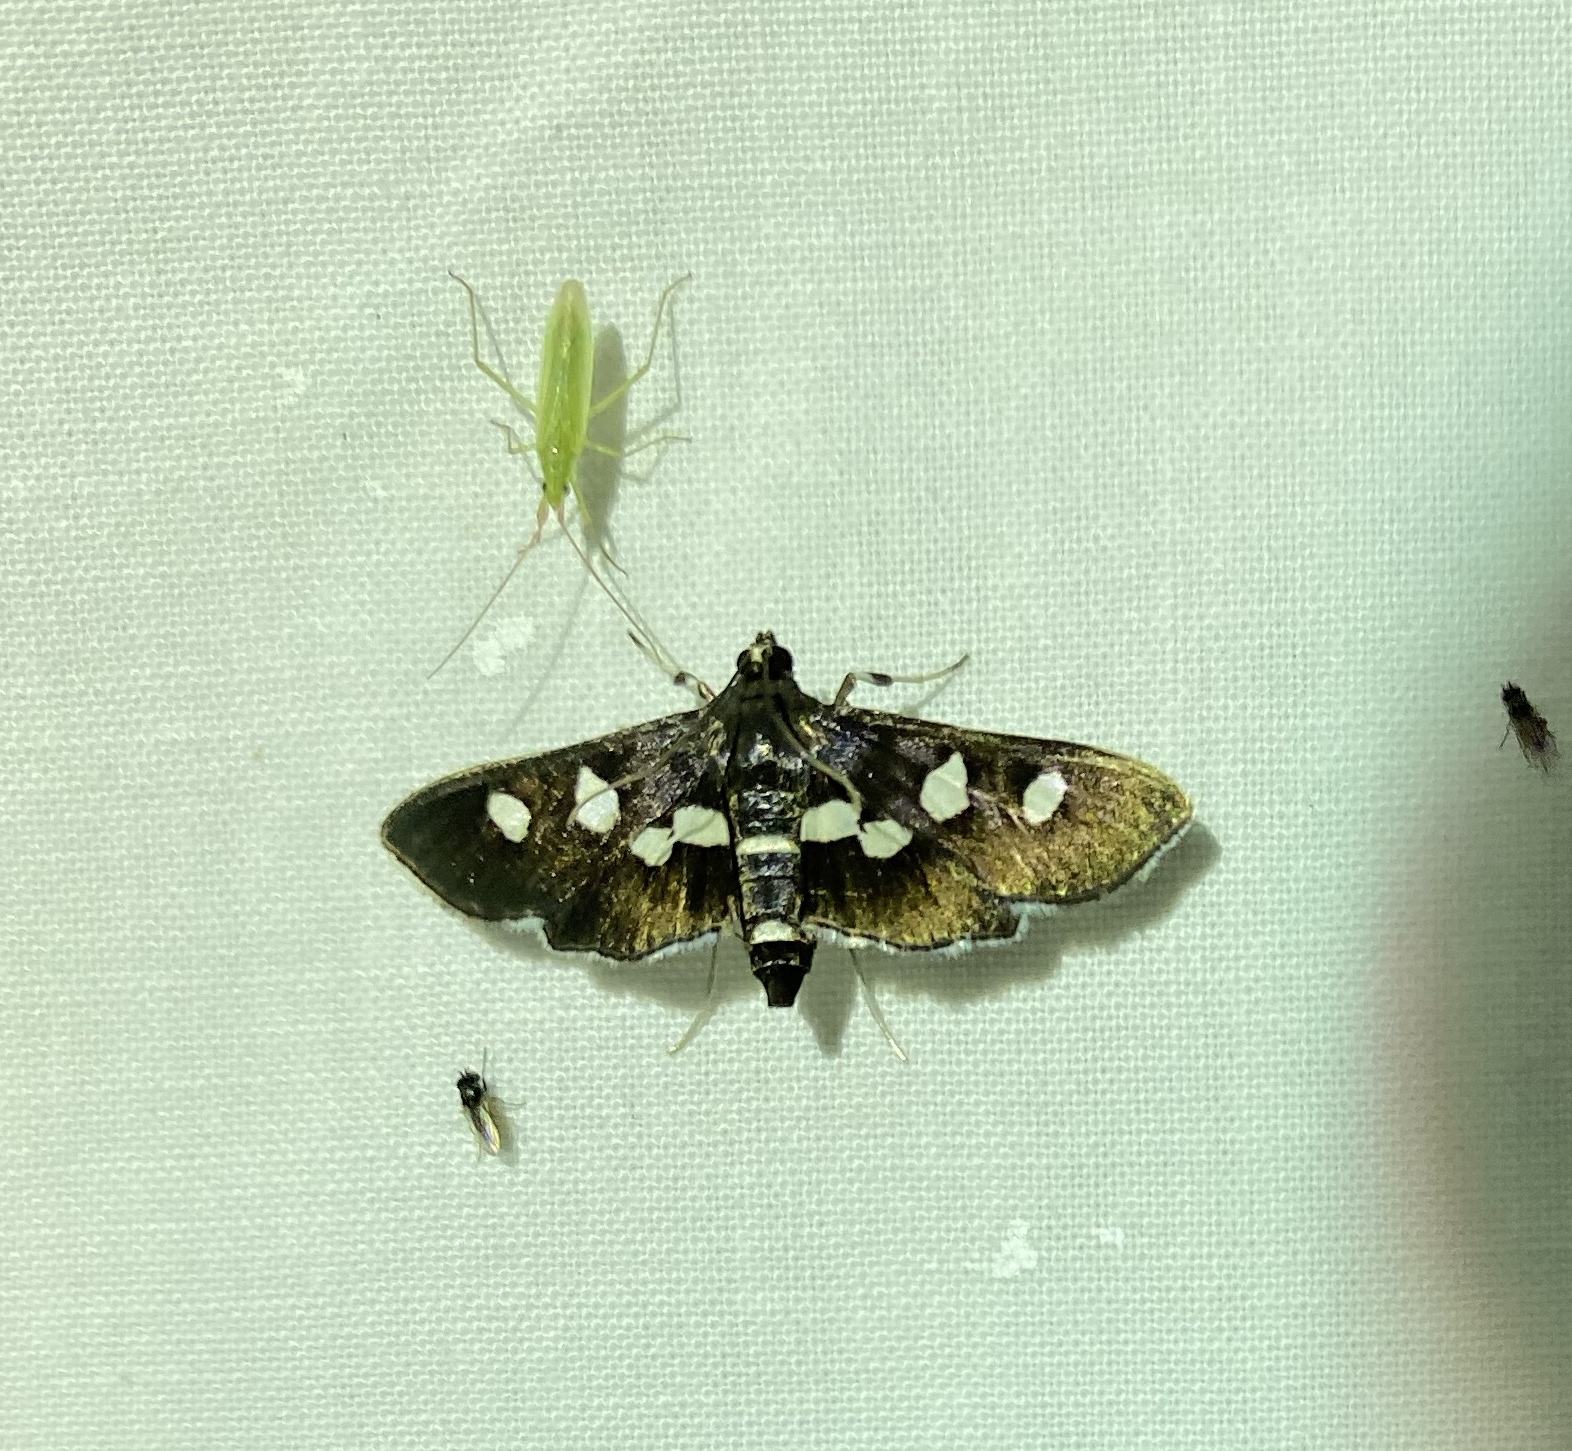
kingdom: Animalia
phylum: Arthropoda
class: Insecta
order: Lepidoptera
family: Crambidae
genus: Desmia
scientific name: Desmia
